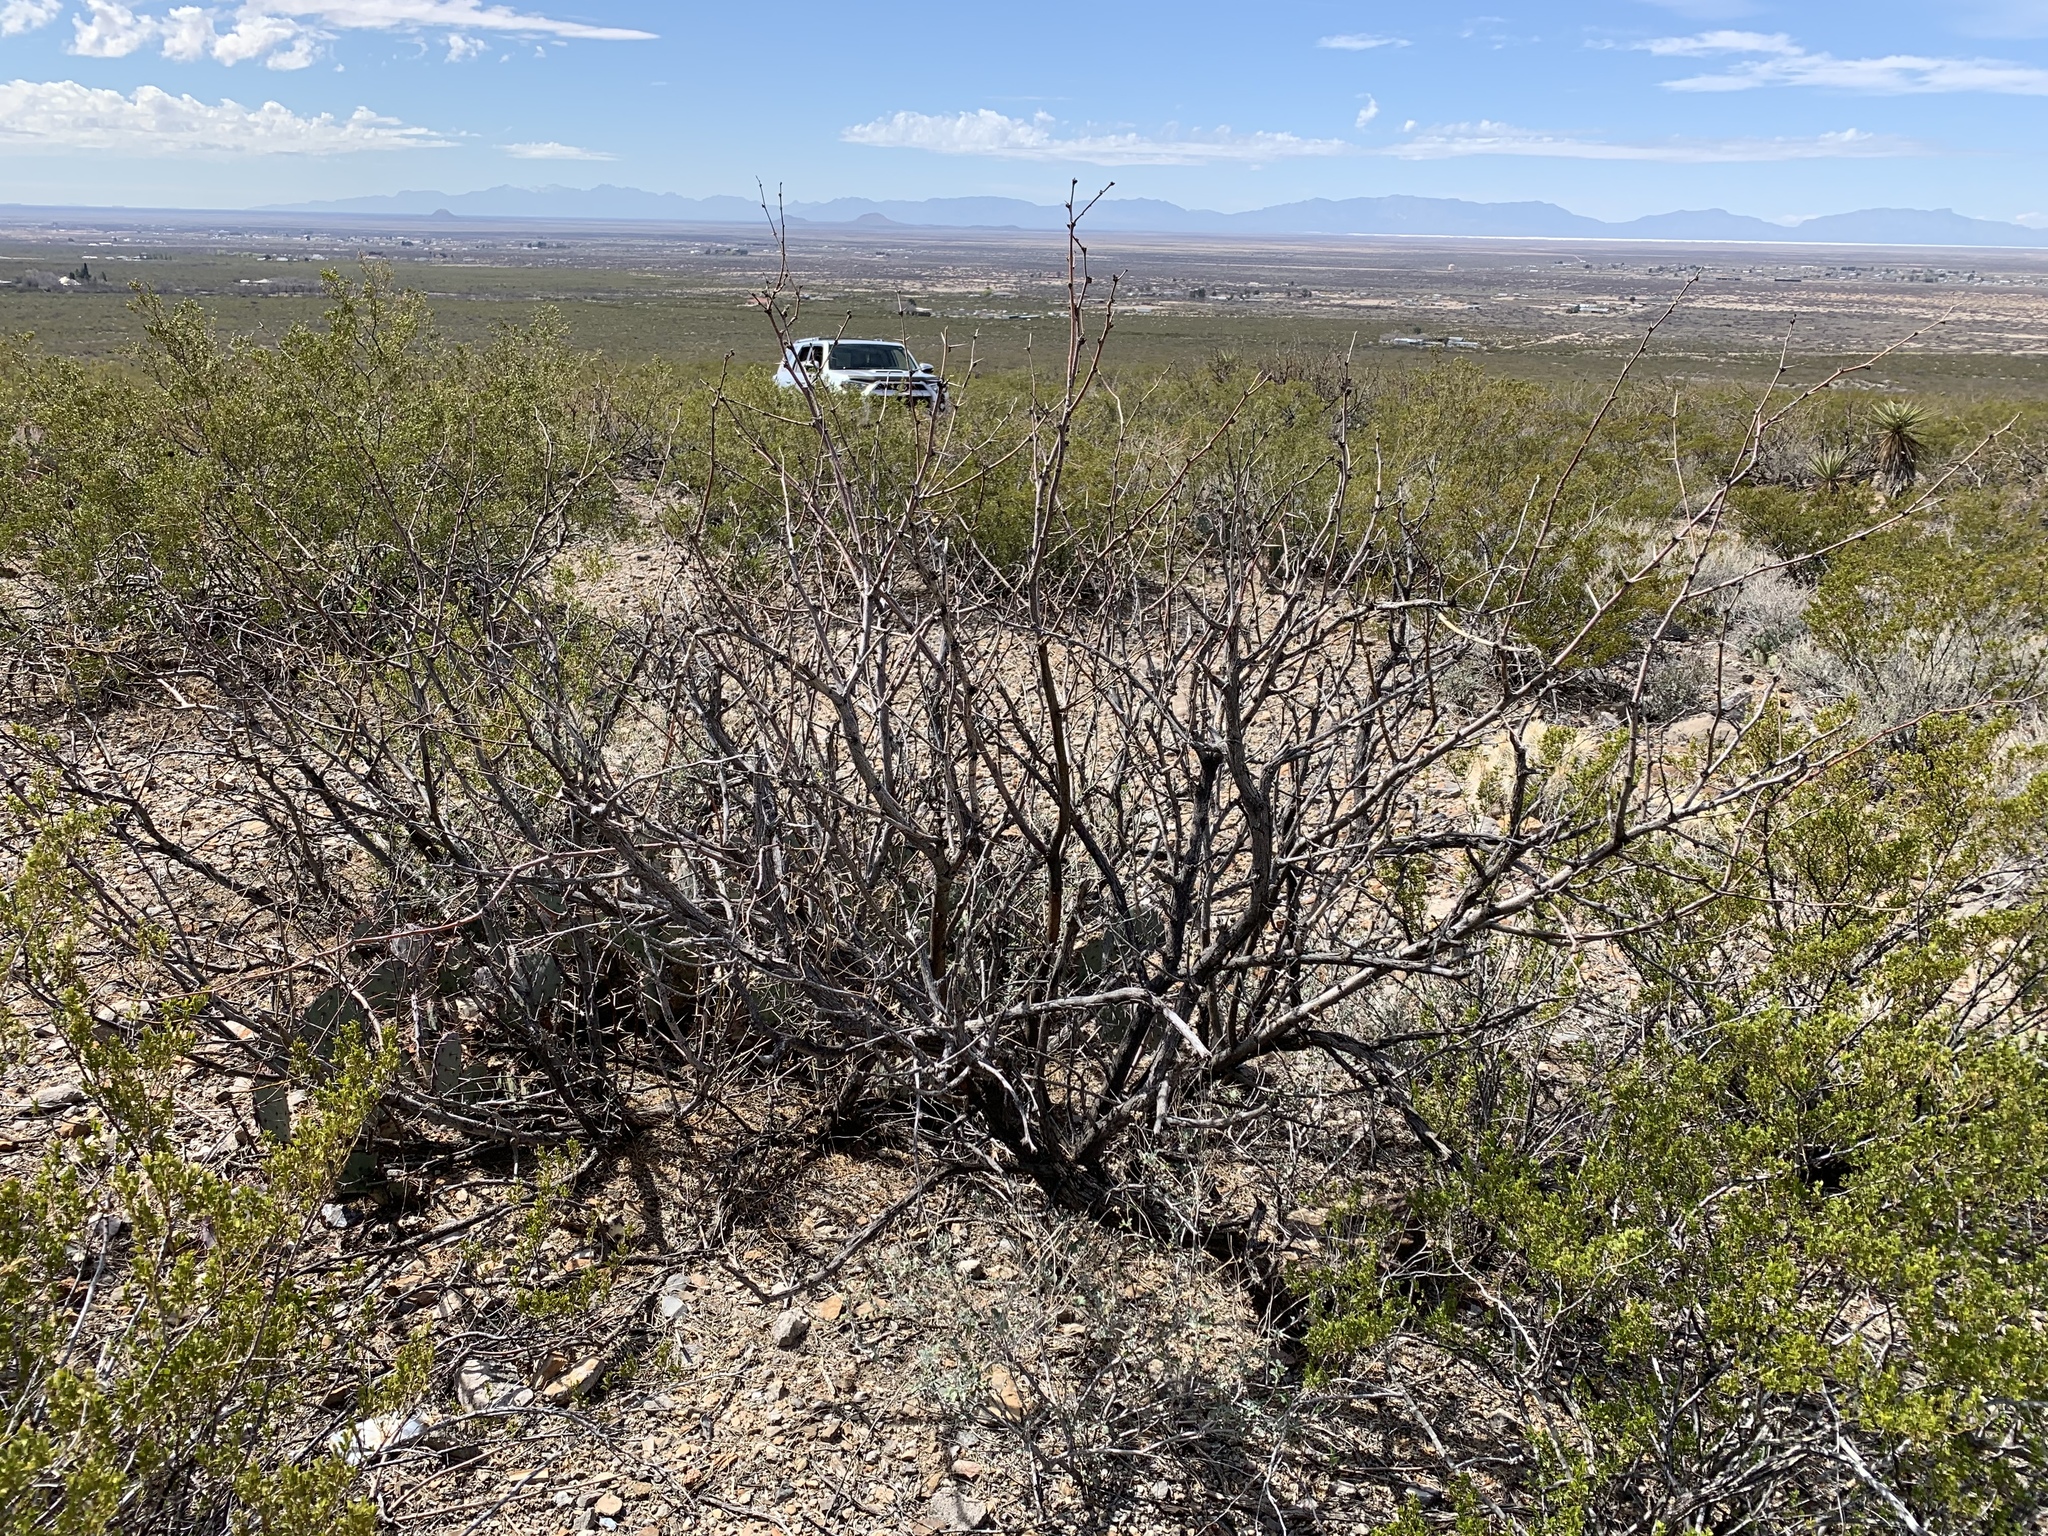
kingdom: Plantae
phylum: Tracheophyta
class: Magnoliopsida
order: Fabales
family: Fabaceae
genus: Prosopis
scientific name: Prosopis glandulosa
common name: Honey mesquite
